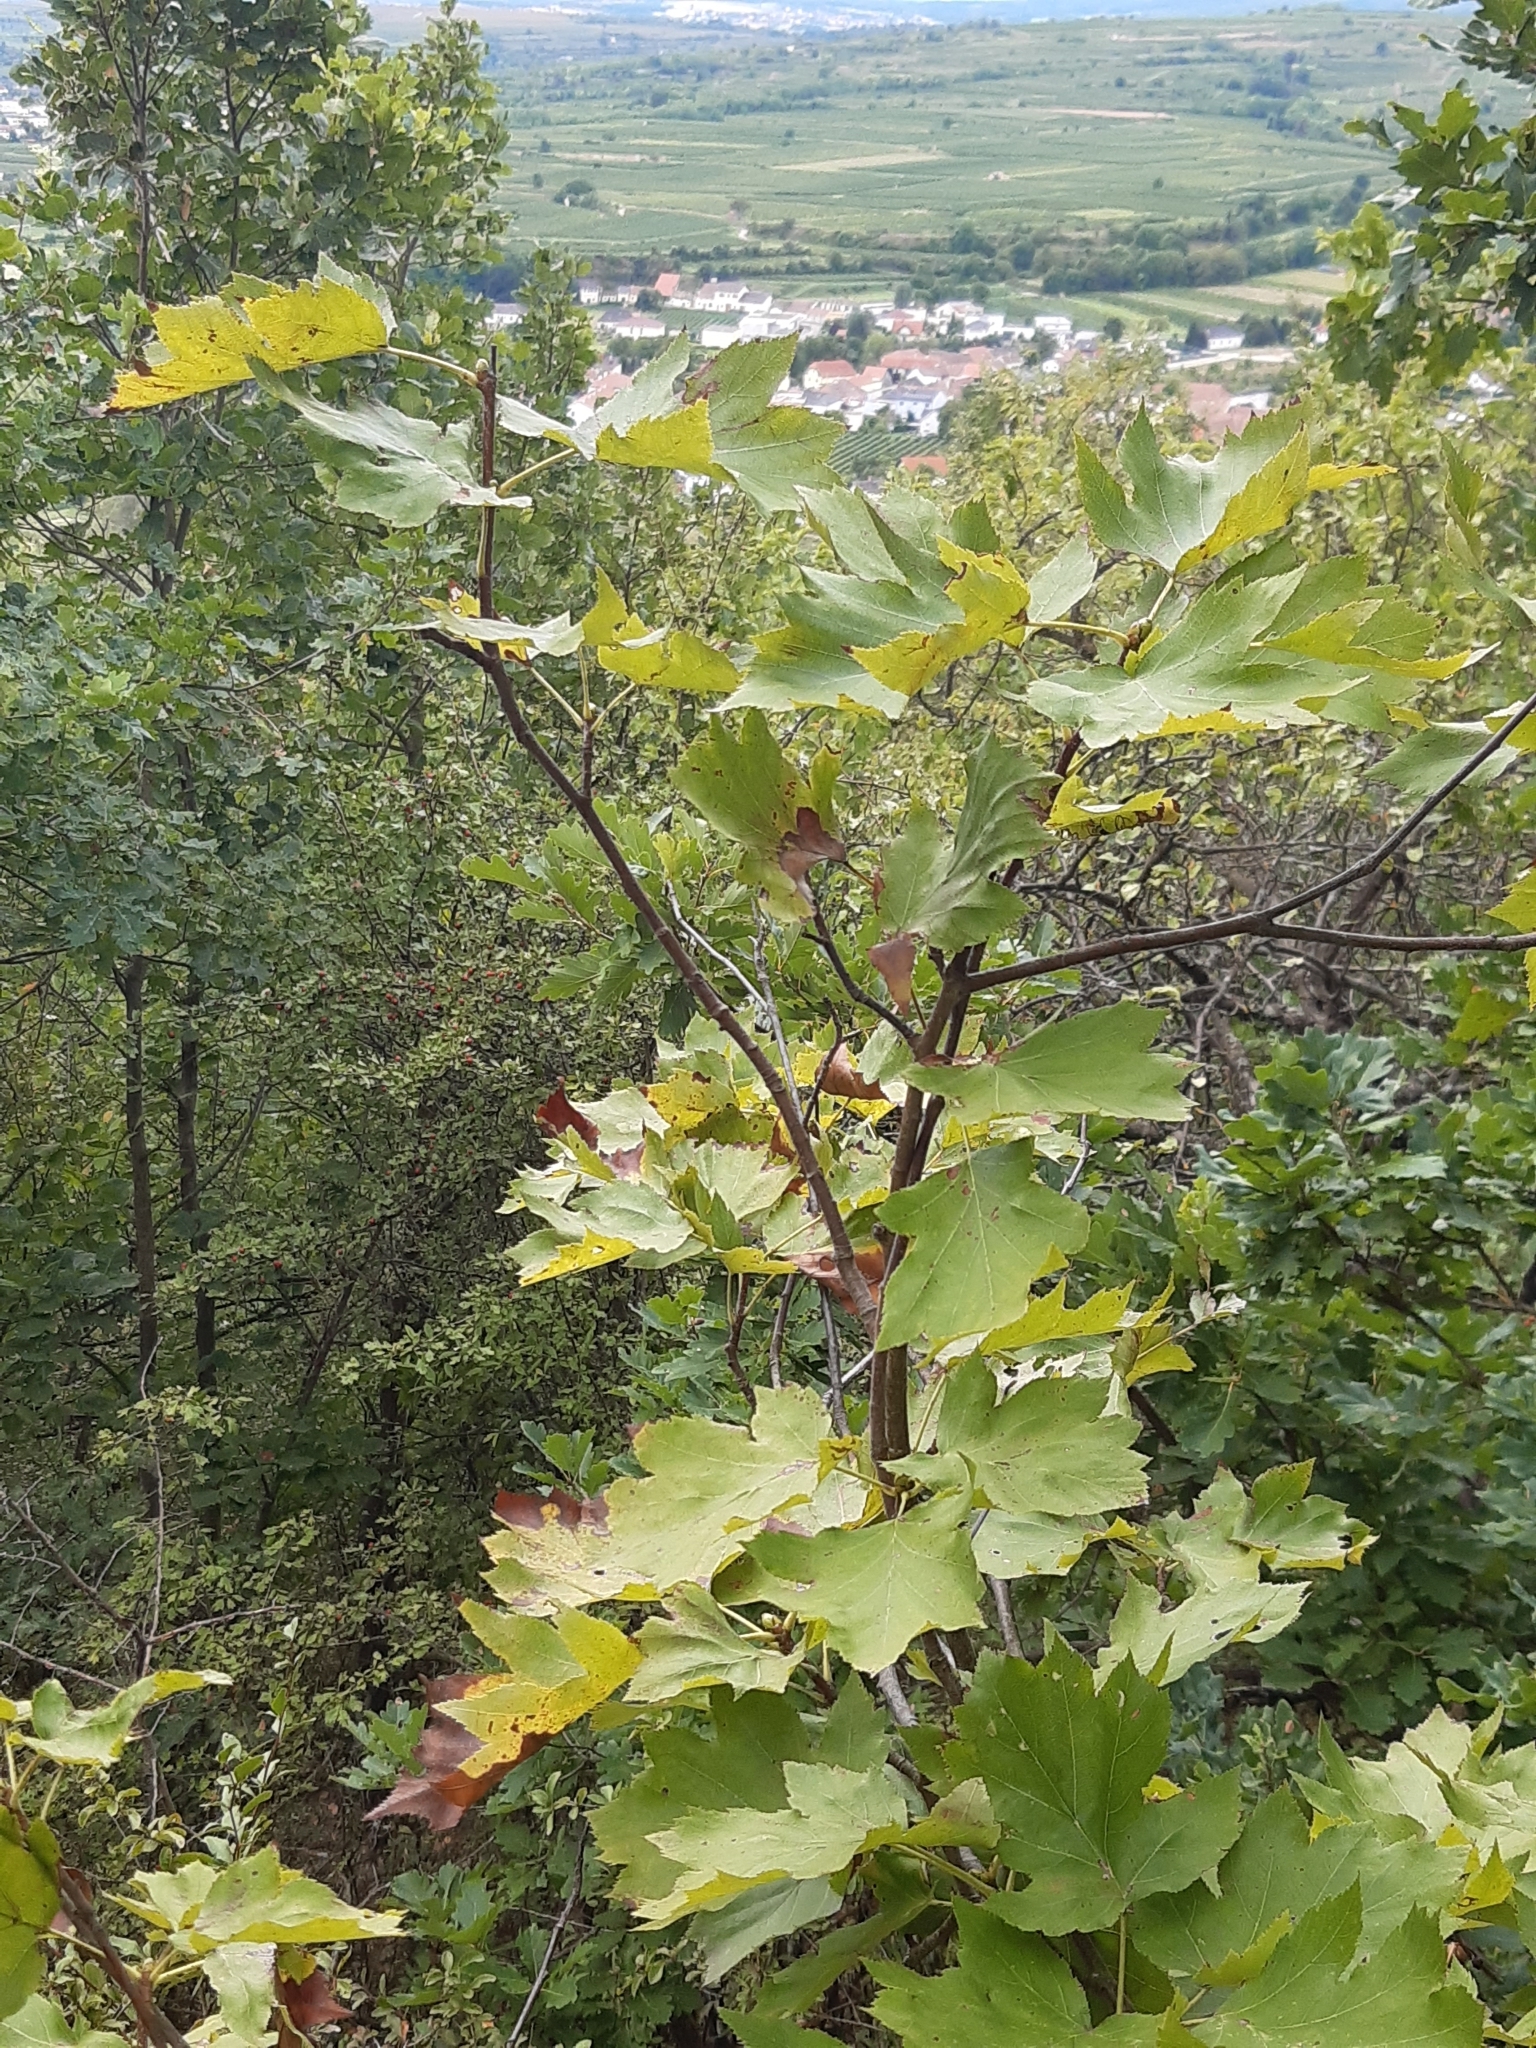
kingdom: Plantae
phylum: Tracheophyta
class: Magnoliopsida
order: Rosales
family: Rosaceae
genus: Torminalis
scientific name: Torminalis glaberrima
